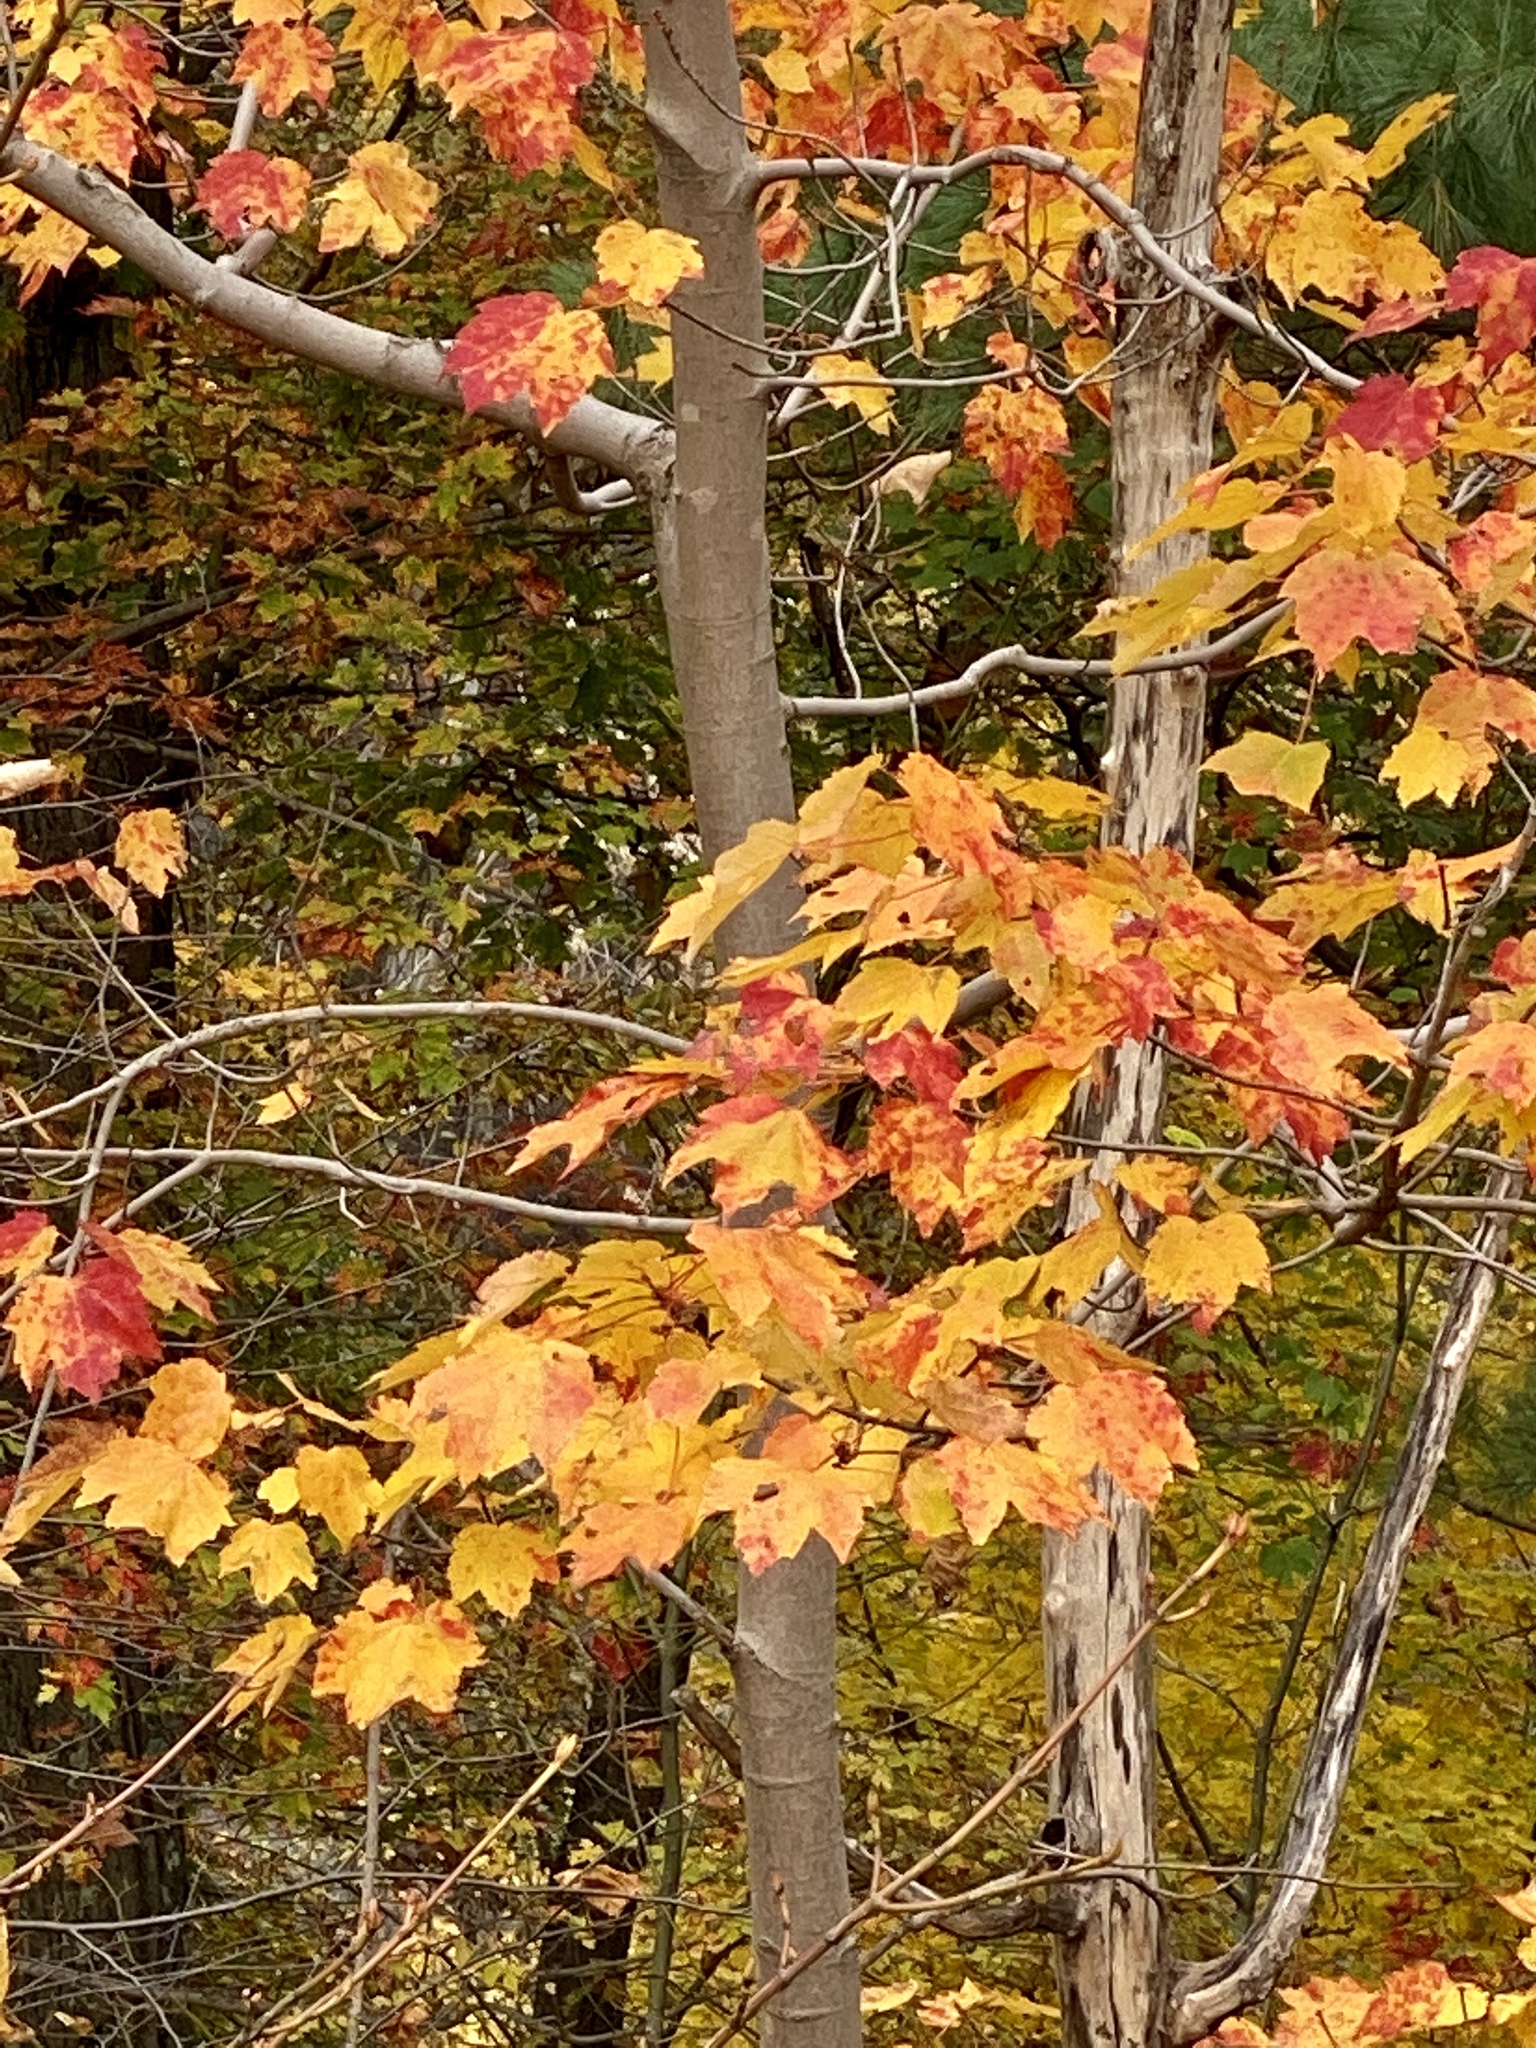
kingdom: Plantae
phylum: Tracheophyta
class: Magnoliopsida
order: Sapindales
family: Sapindaceae
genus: Acer
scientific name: Acer rubrum
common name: Red maple
